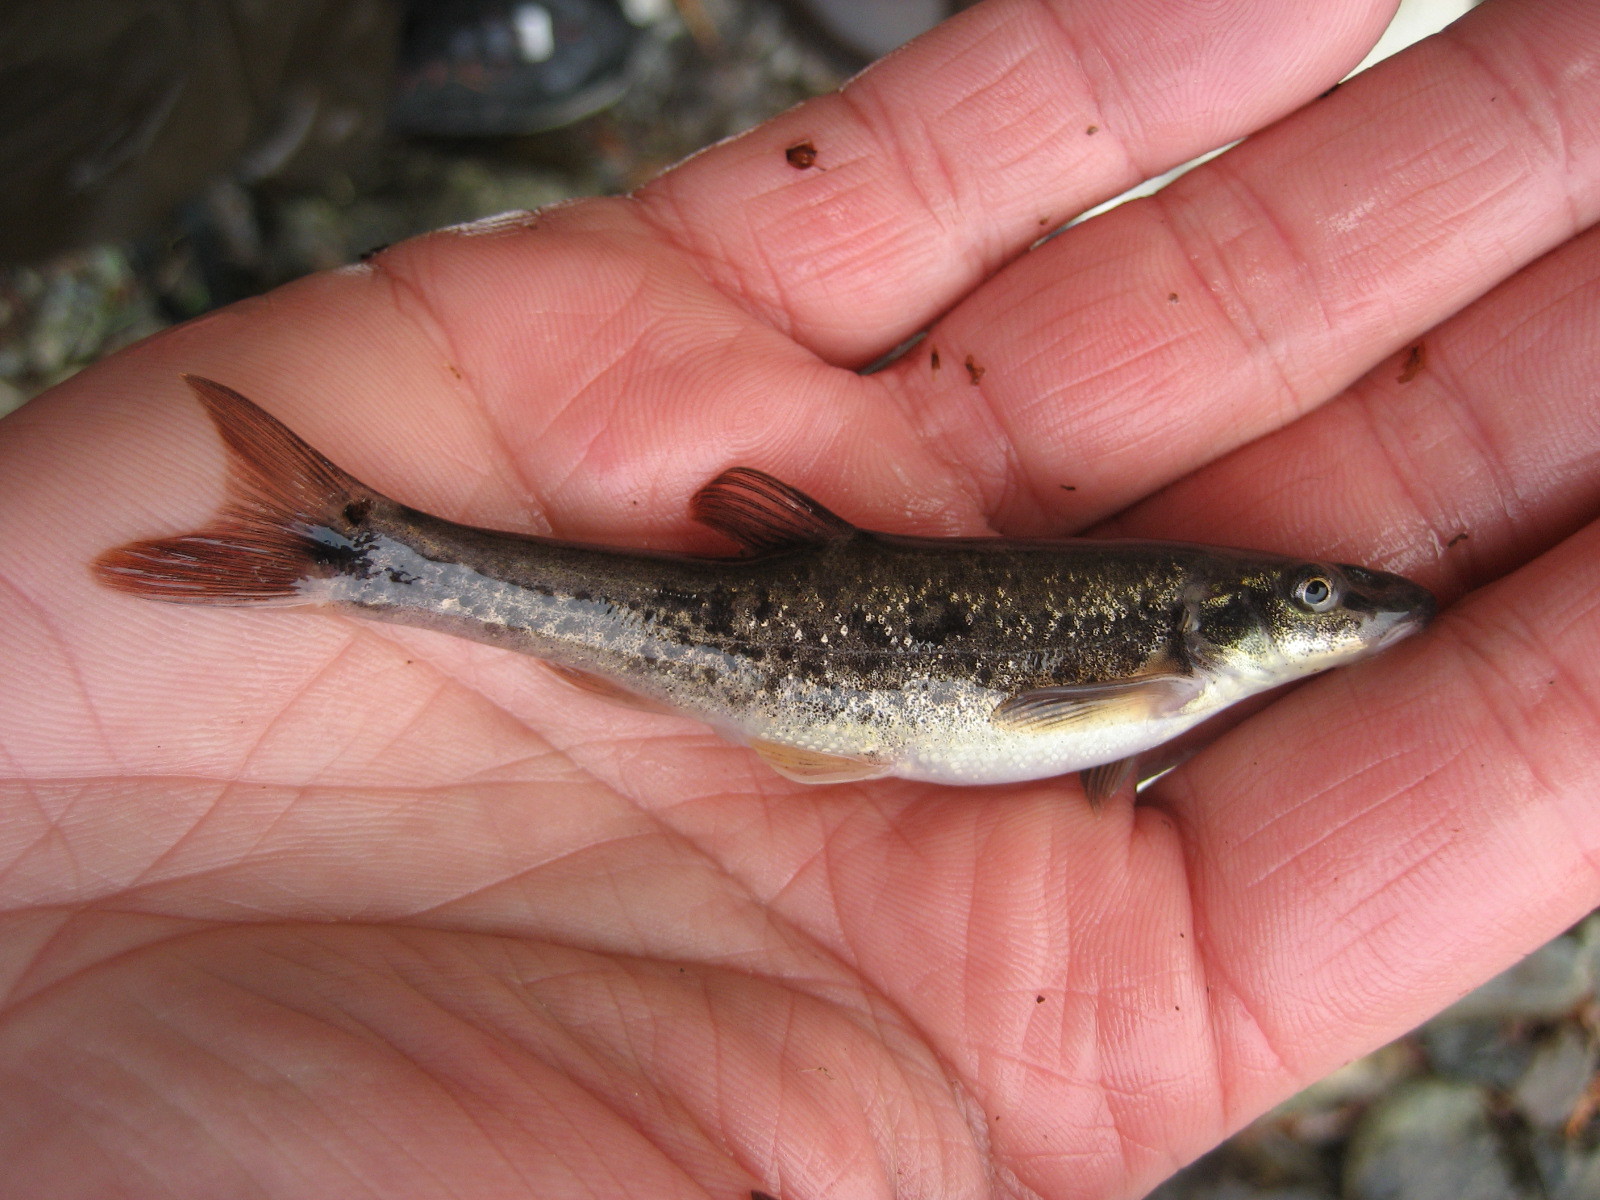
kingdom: Animalia
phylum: Chordata
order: Cypriniformes
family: Cyprinidae
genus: Rhinichthys
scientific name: Rhinichthys cataractae
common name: Longnose dace
